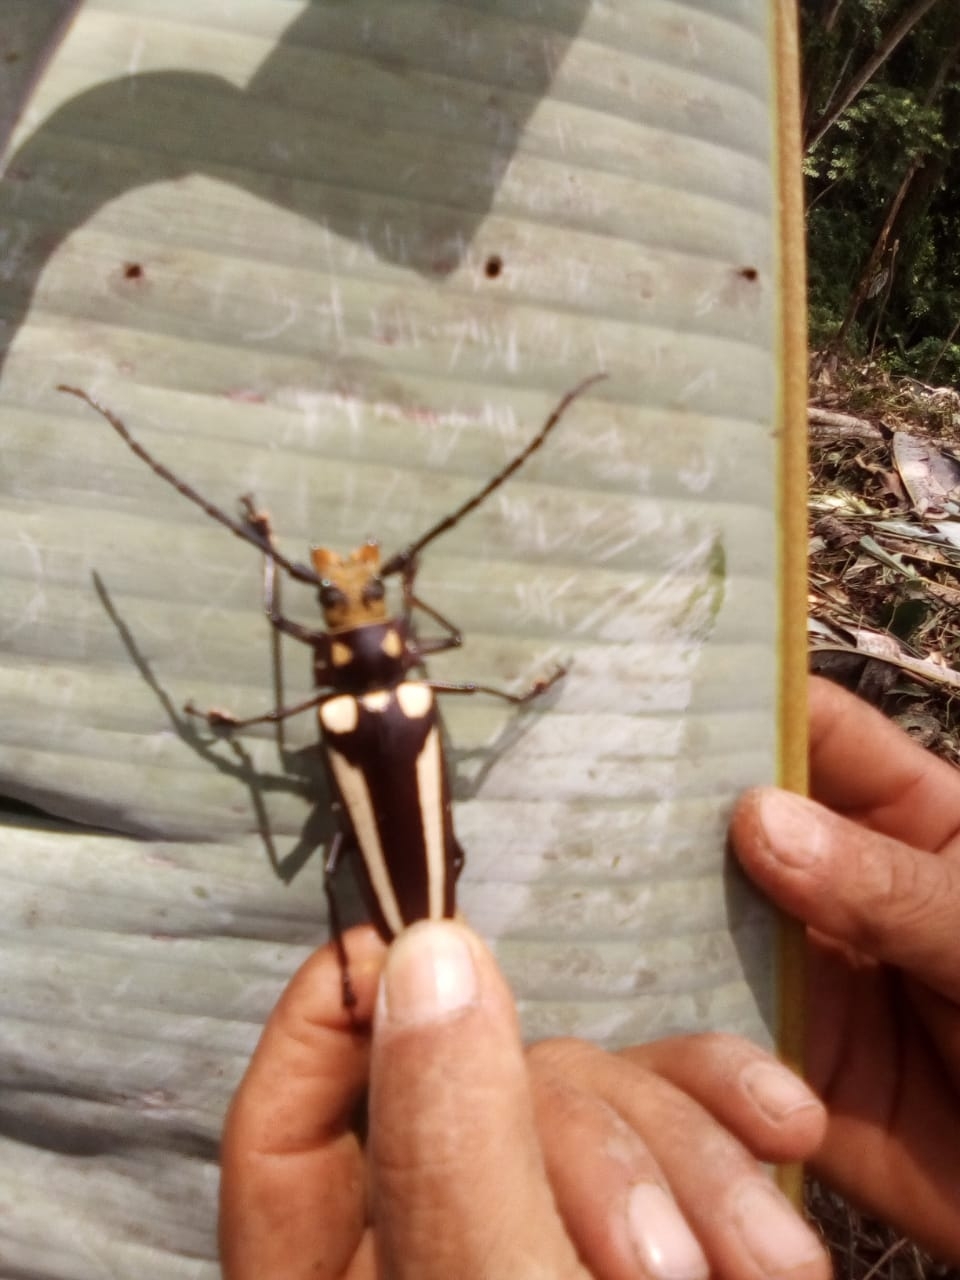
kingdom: Animalia
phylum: Arthropoda
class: Insecta
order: Coleoptera
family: Cerambycidae
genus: Callipogon
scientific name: Callipogon lemoinei
